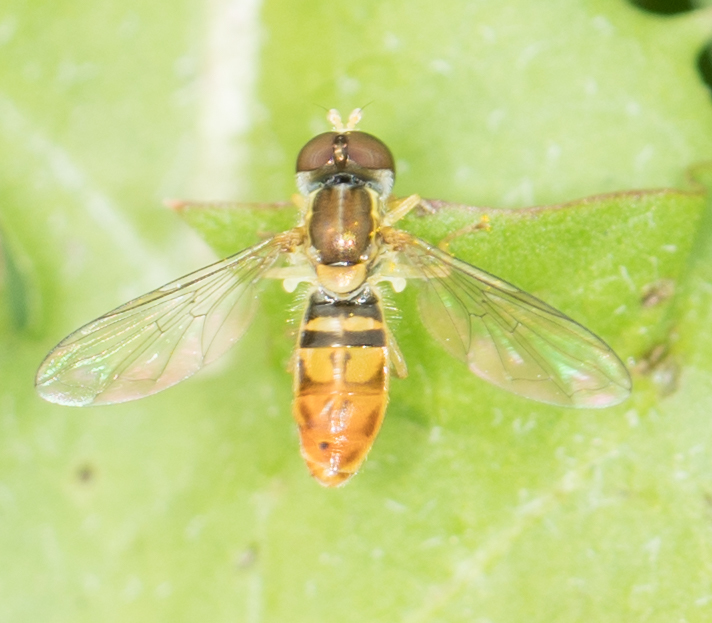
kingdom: Animalia
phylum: Arthropoda
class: Insecta
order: Diptera
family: Syrphidae
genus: Toxomerus
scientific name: Toxomerus marginatus
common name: Syrphid fly
